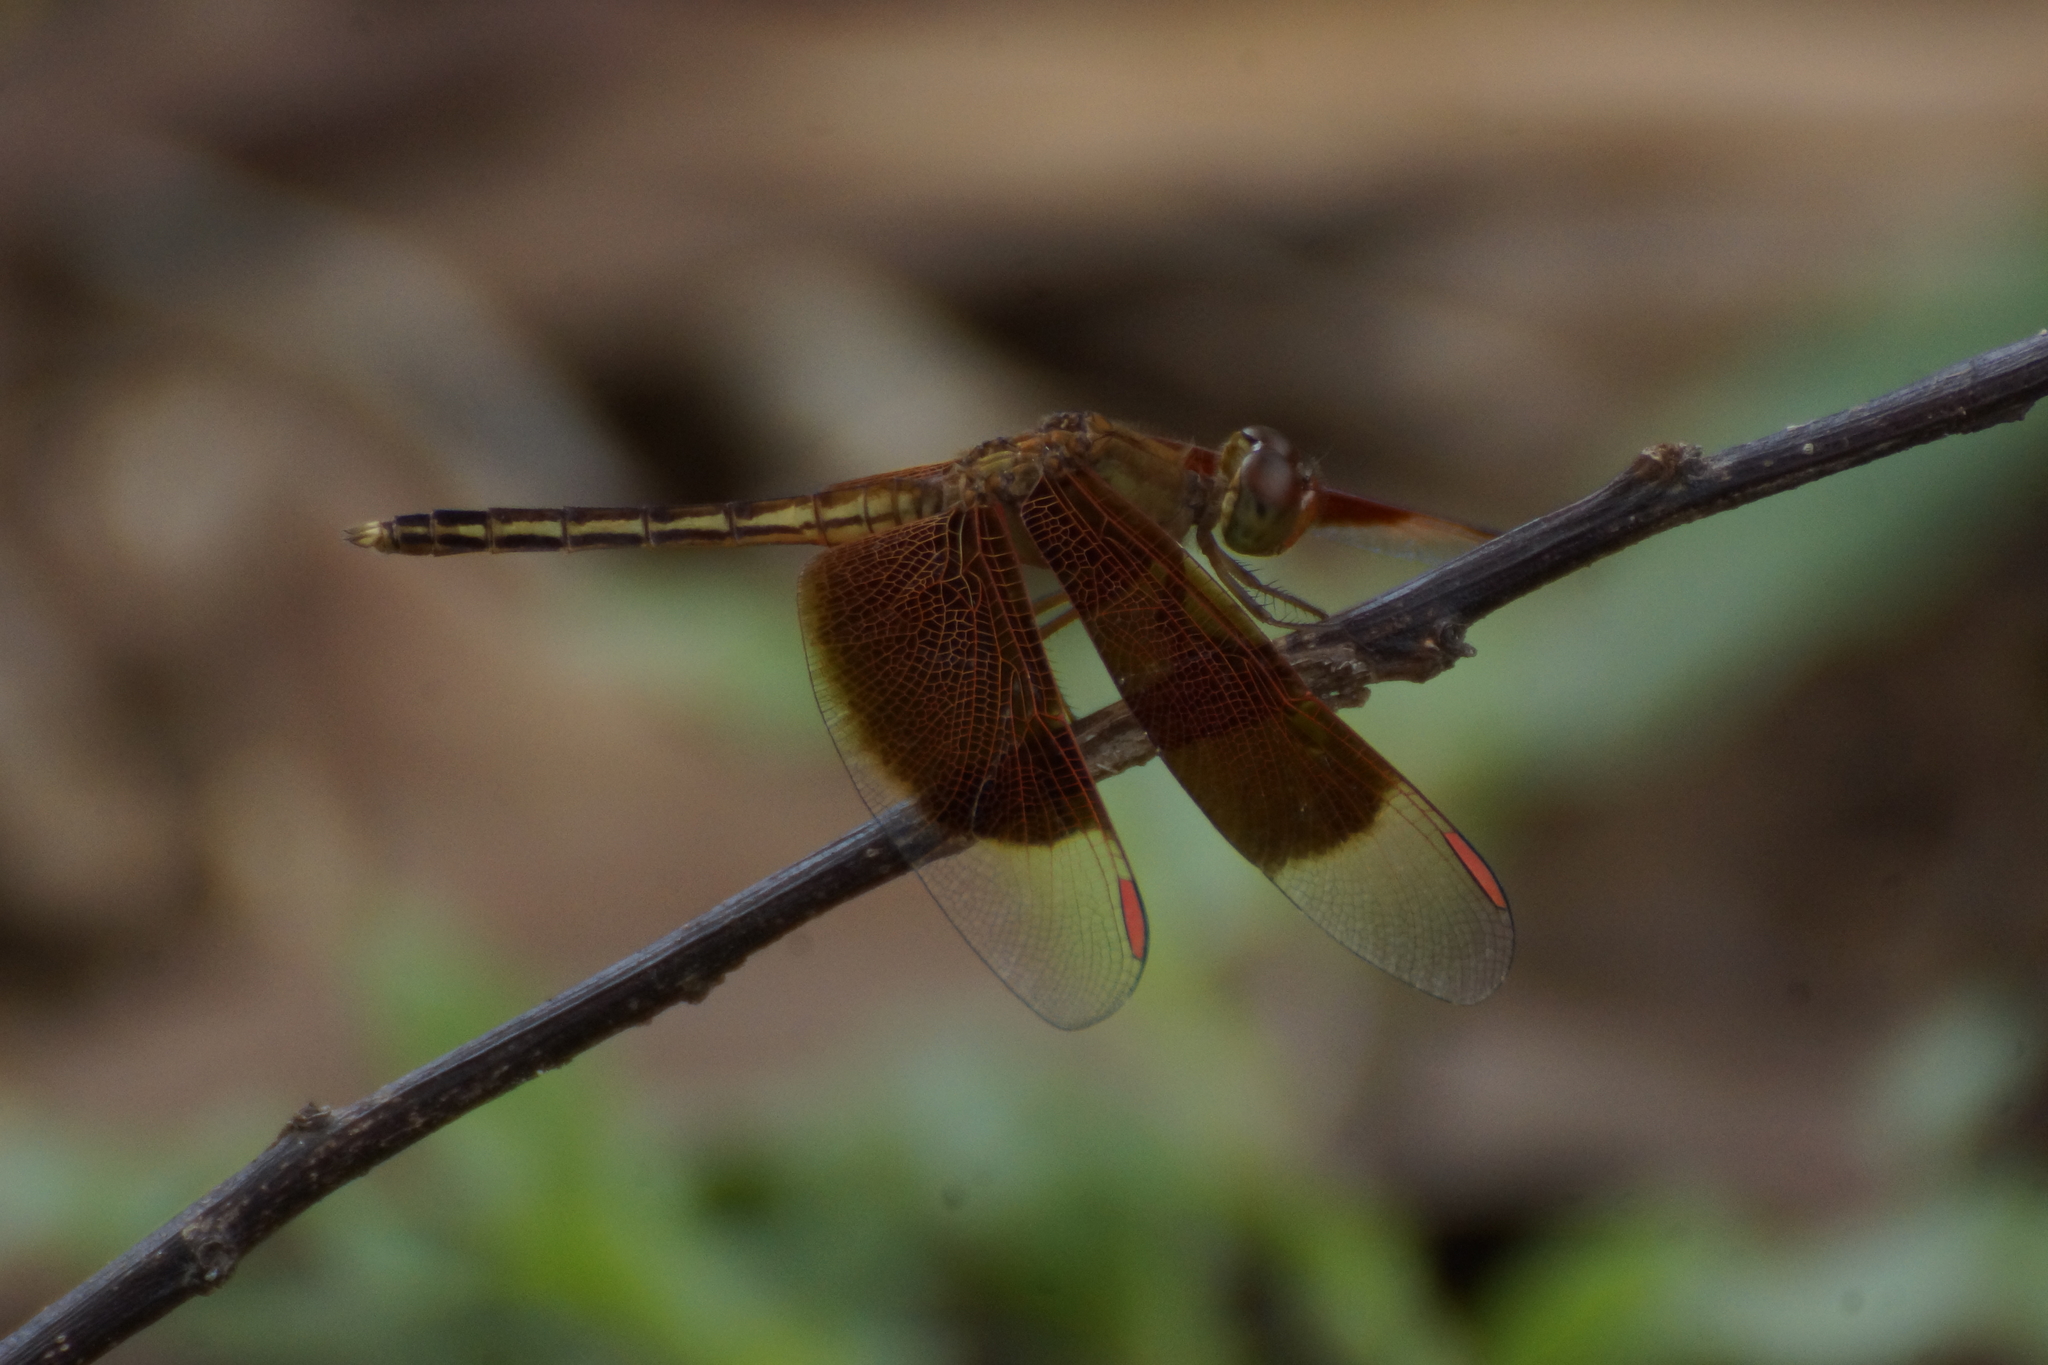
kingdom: Animalia
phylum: Arthropoda
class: Insecta
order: Odonata
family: Libellulidae
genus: Neurothemis
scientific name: Neurothemis stigmatizans
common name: Painted grasshawk
